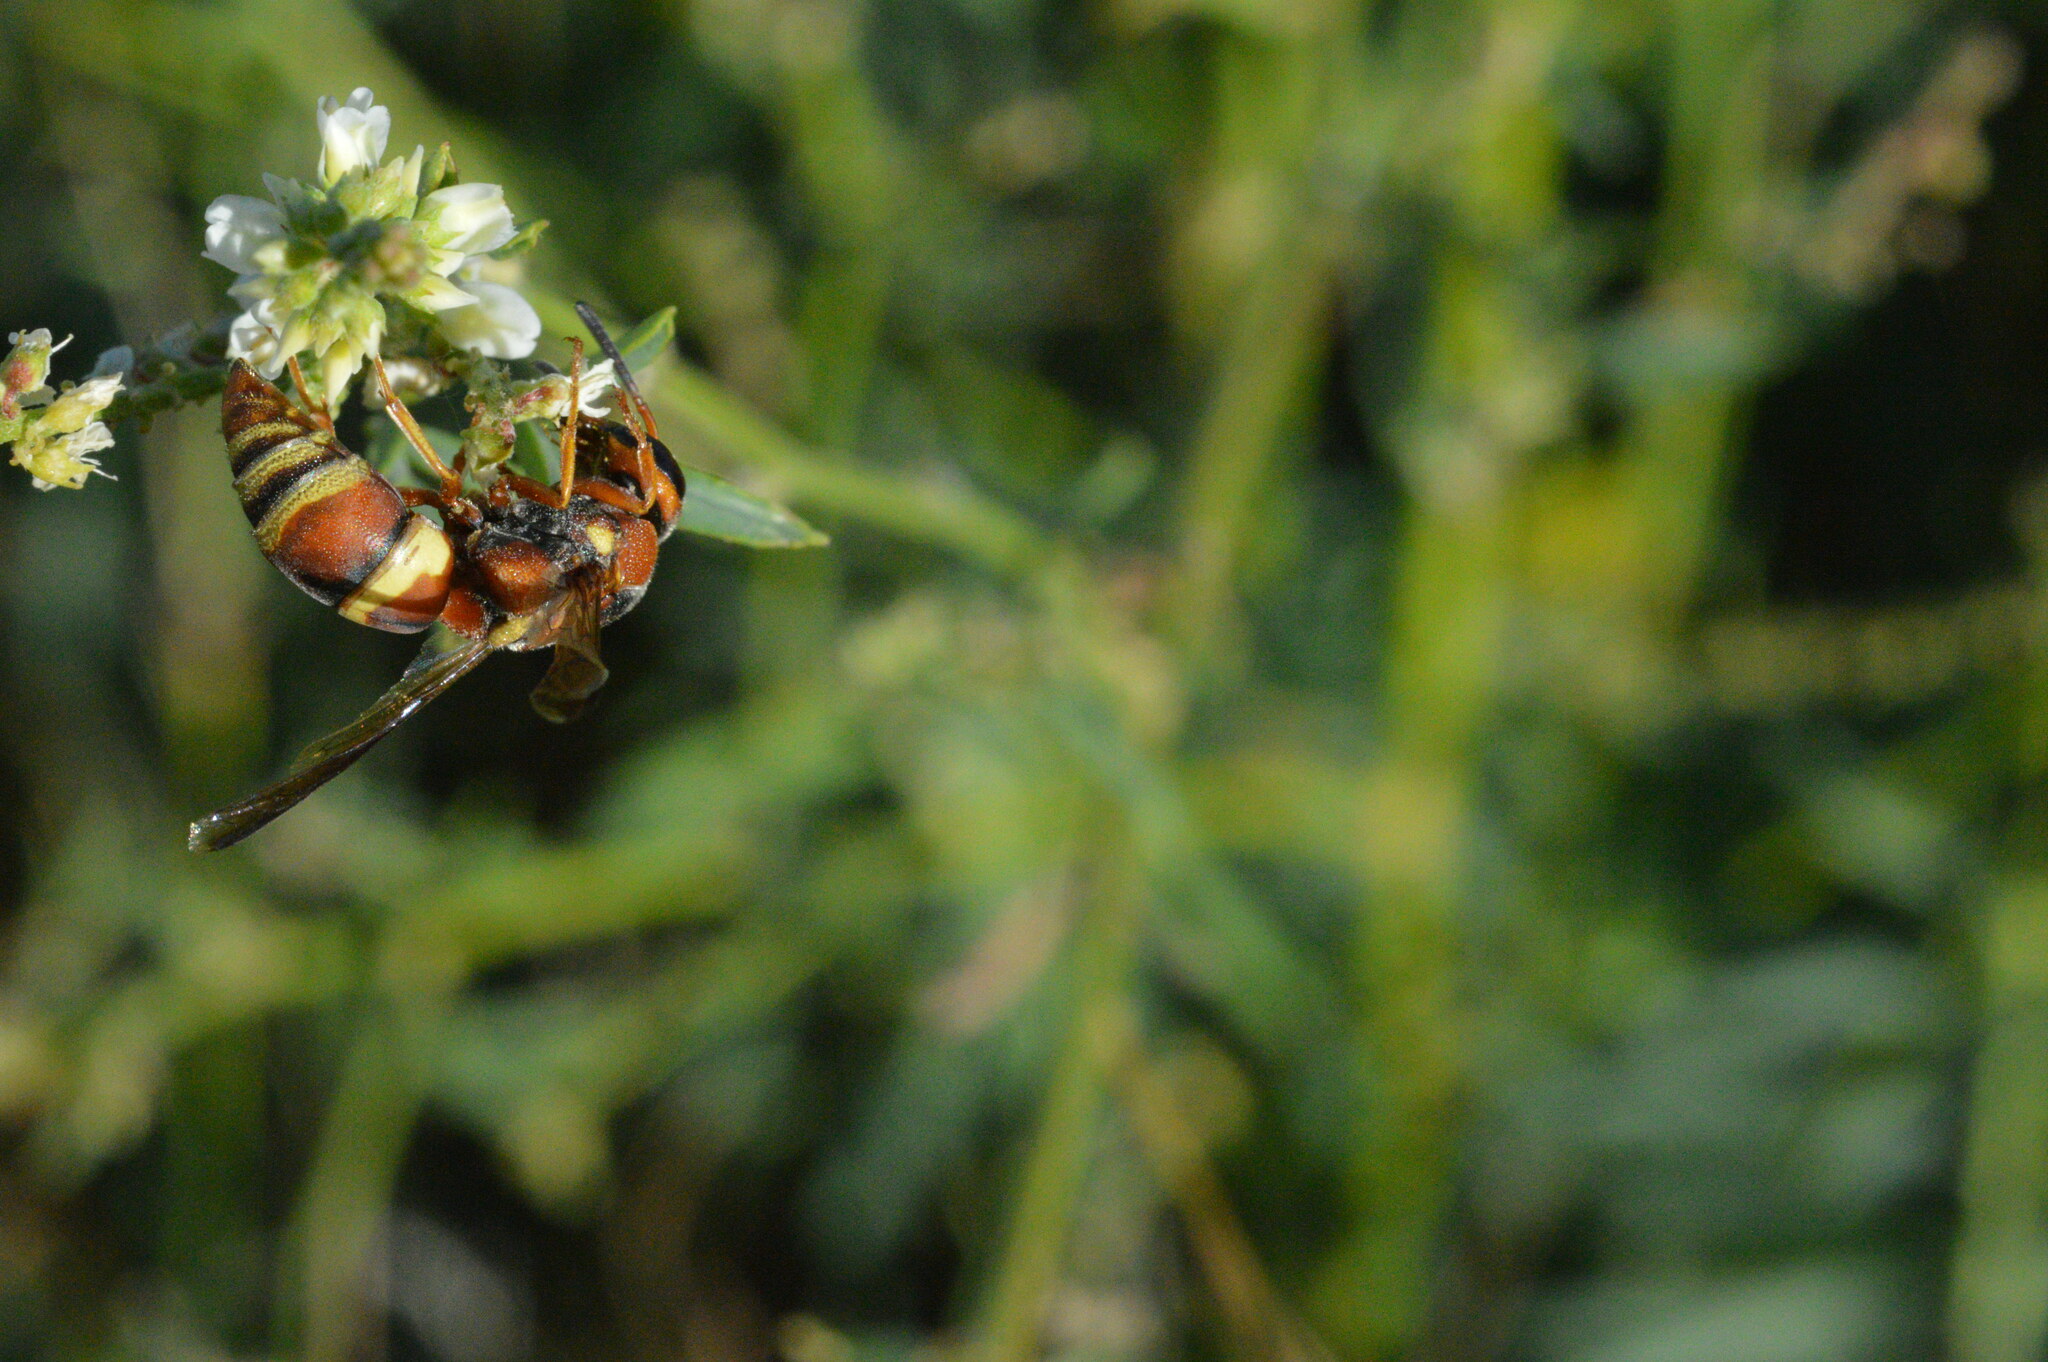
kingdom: Animalia
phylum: Arthropoda
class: Insecta
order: Hymenoptera
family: Eumenidae
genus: Euodynerus
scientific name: Euodynerus hidalgo
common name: Wasp
